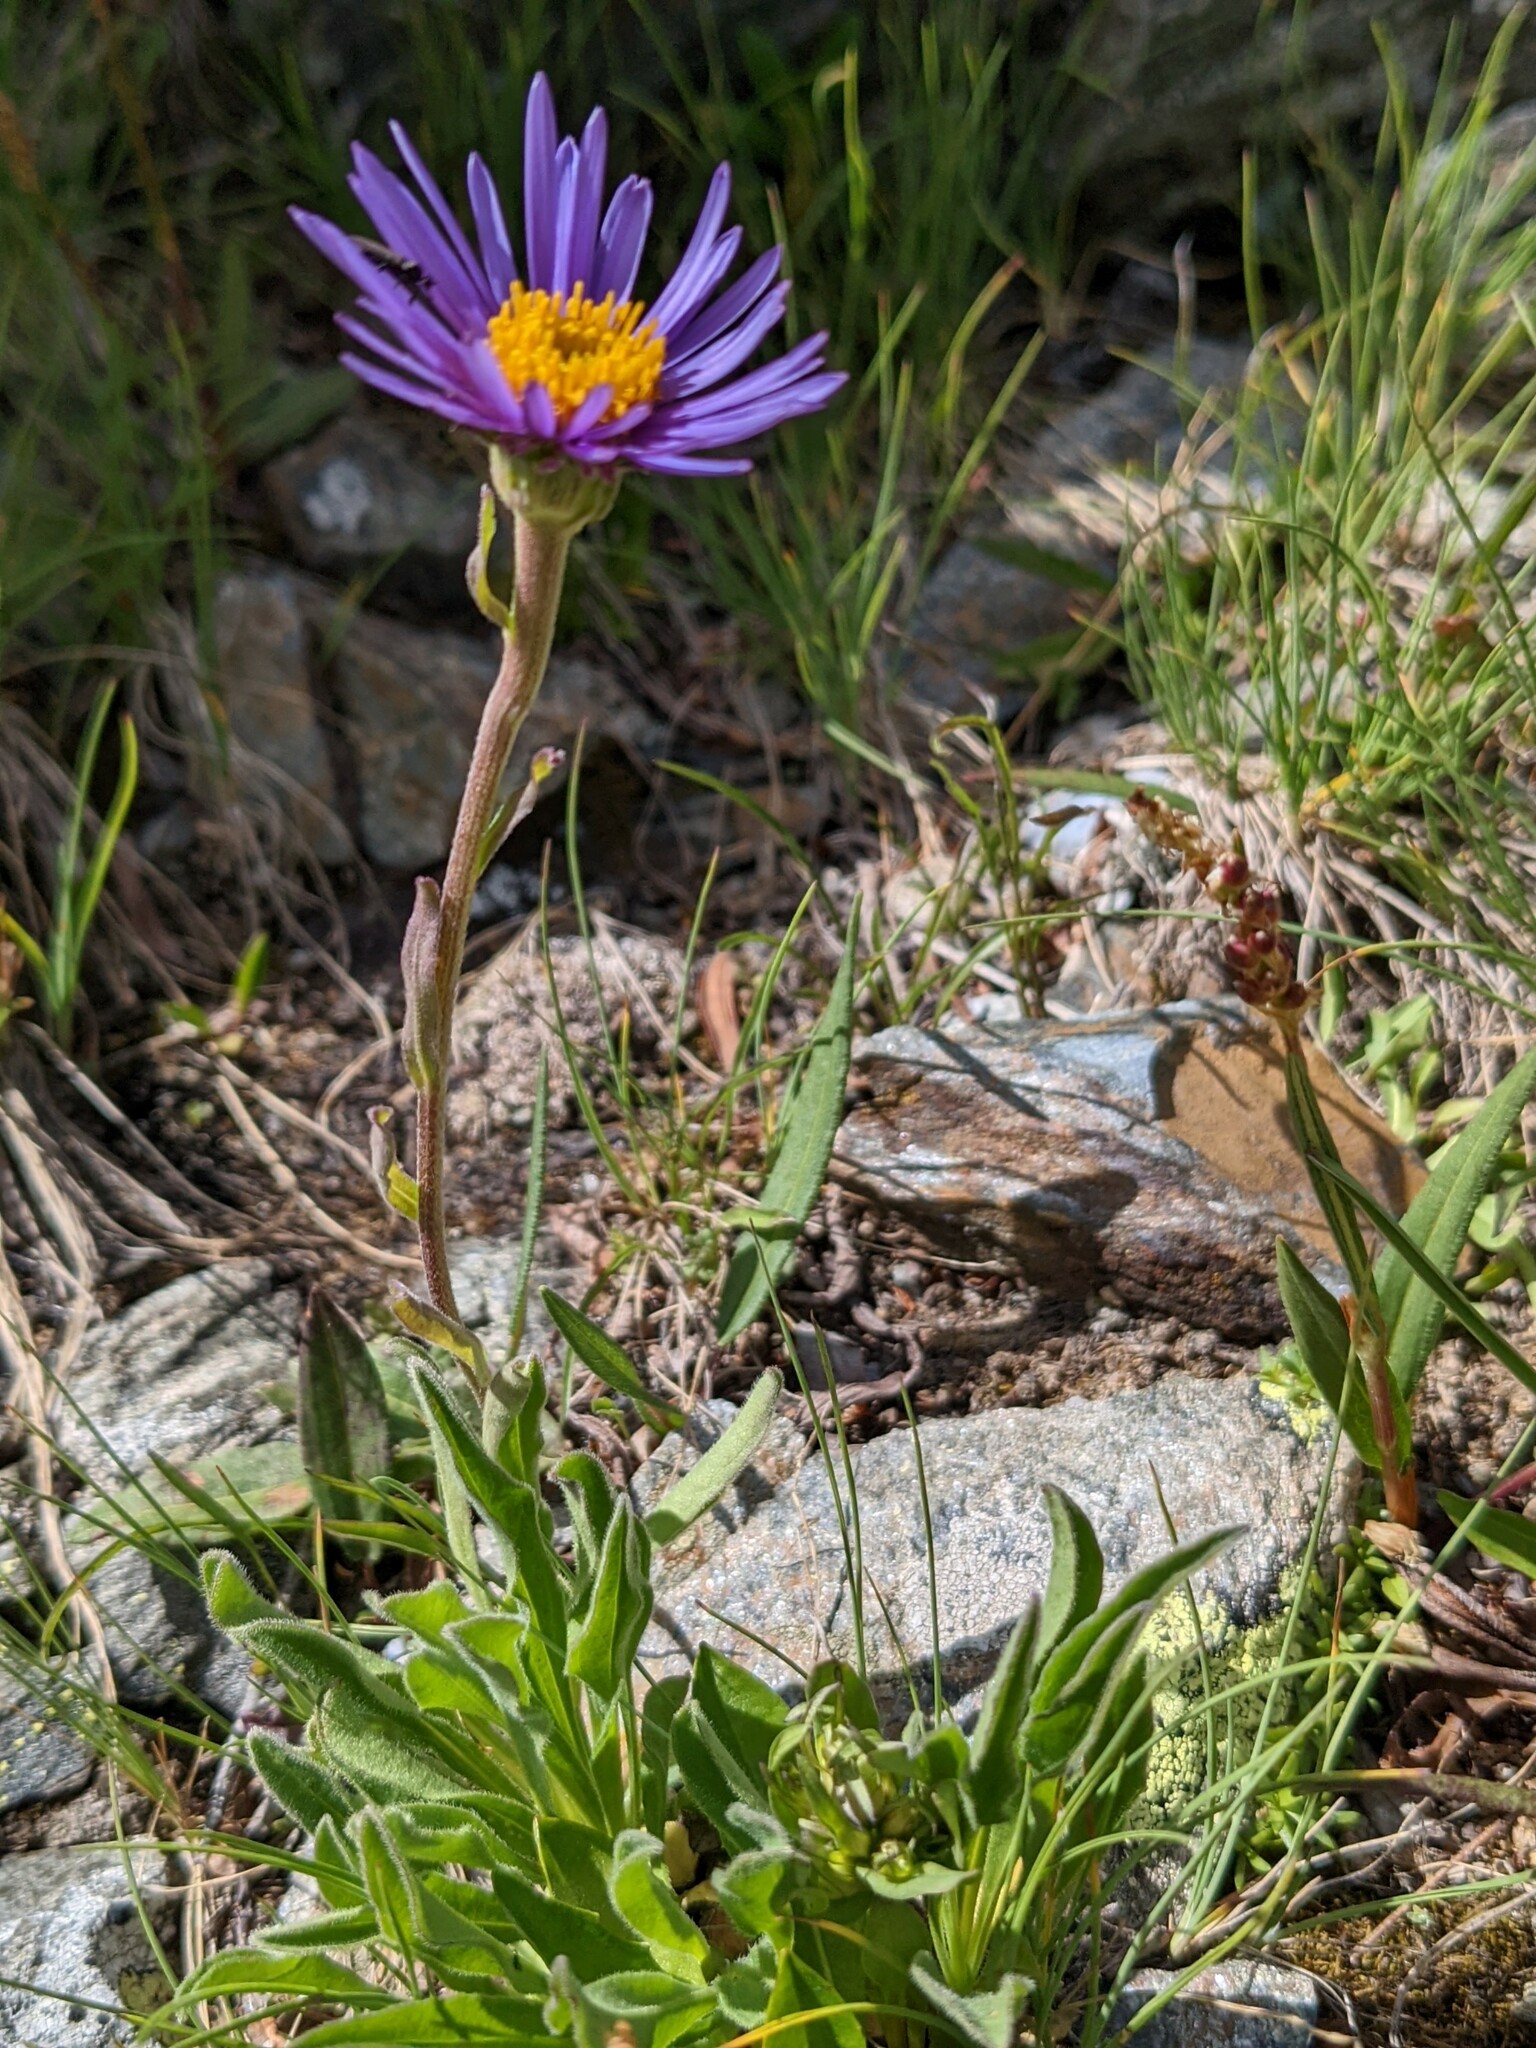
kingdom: Plantae
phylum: Tracheophyta
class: Magnoliopsida
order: Asterales
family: Asteraceae
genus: Aster
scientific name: Aster alpinus
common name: Alpine aster
